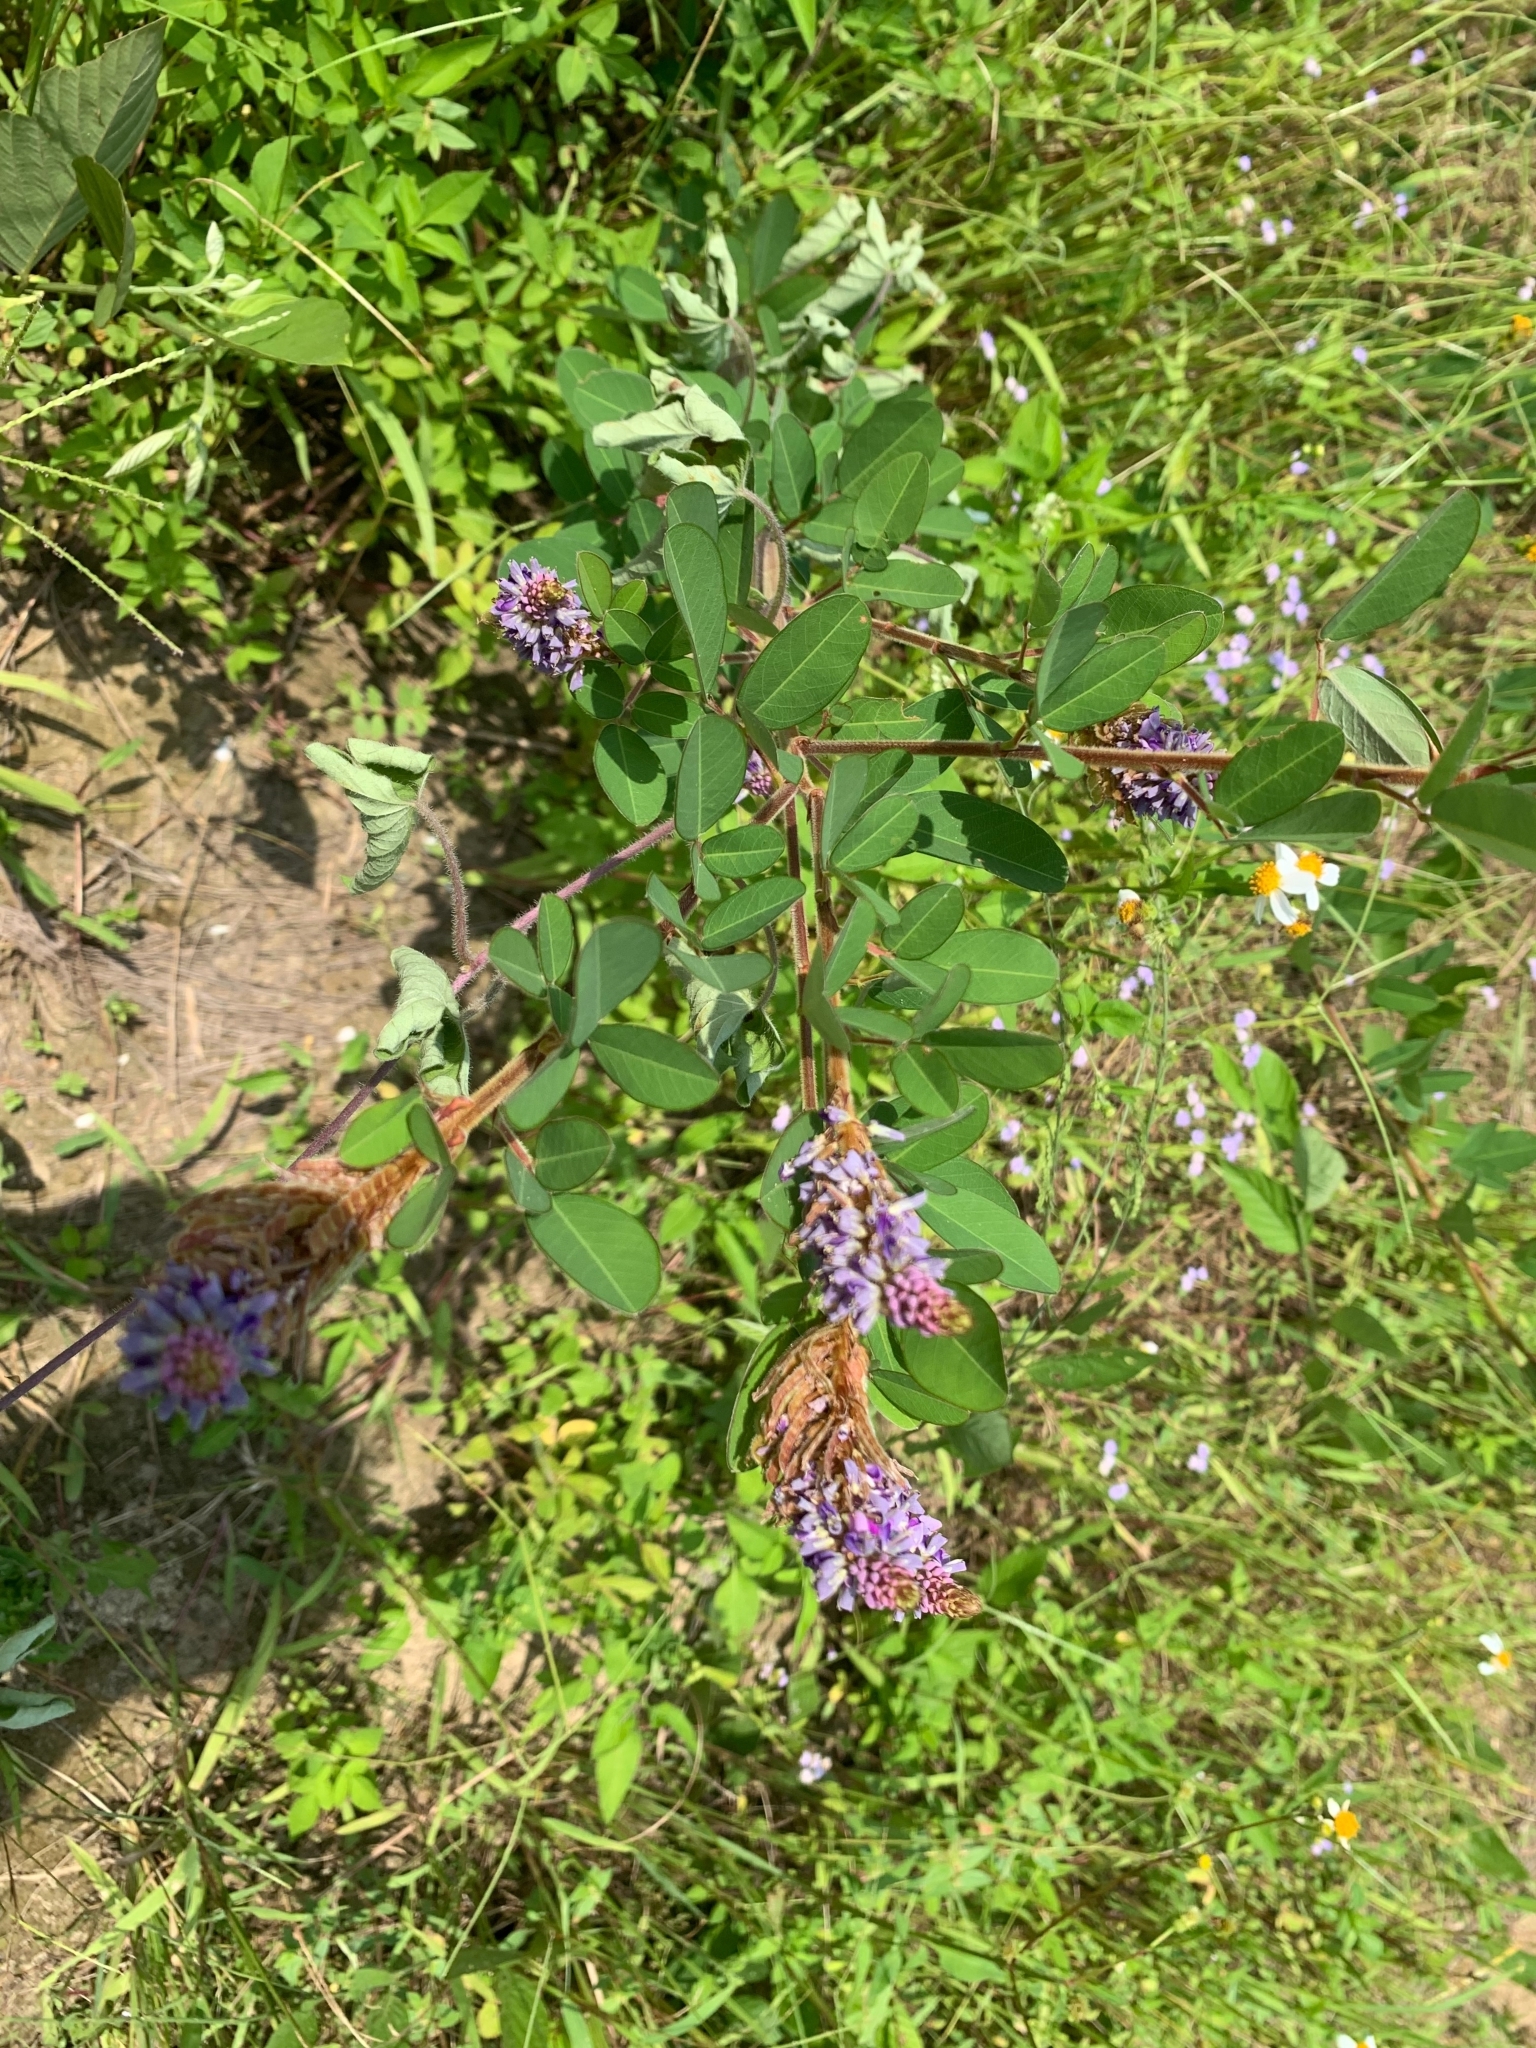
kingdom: Plantae
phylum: Tracheophyta
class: Magnoliopsida
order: Fabales
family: Fabaceae
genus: Grona
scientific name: Grona heterocarpos
